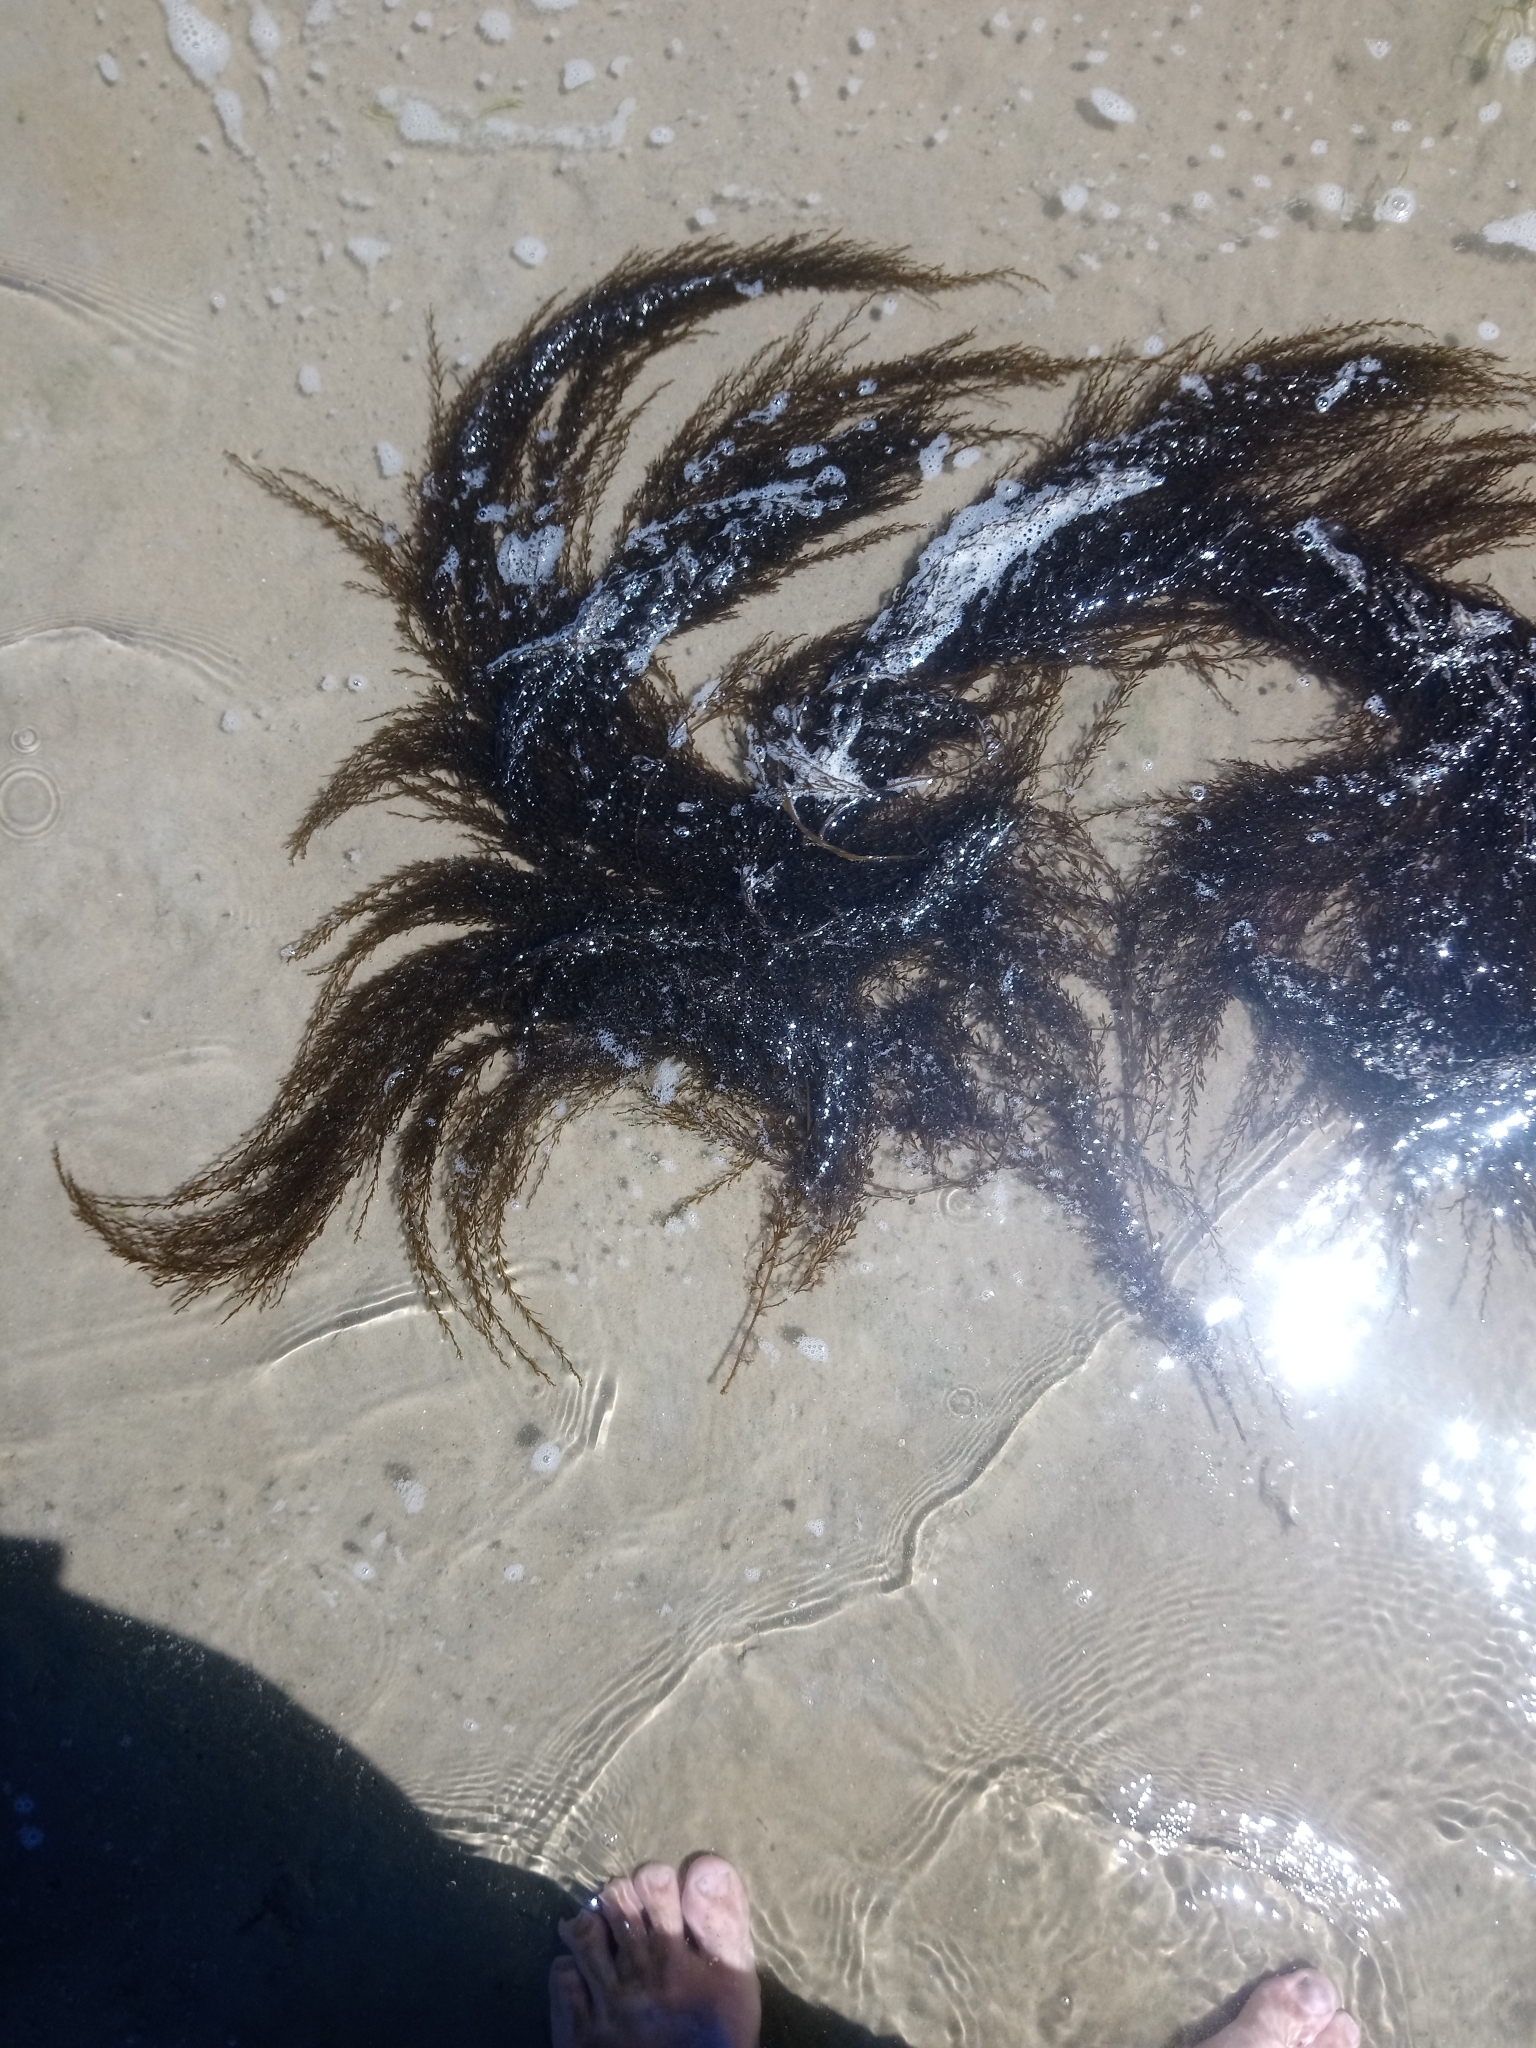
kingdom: Chromista
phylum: Ochrophyta
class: Phaeophyceae
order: Fucales
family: Sargassaceae
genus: Sargassum
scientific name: Sargassum muticum
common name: Japweed
